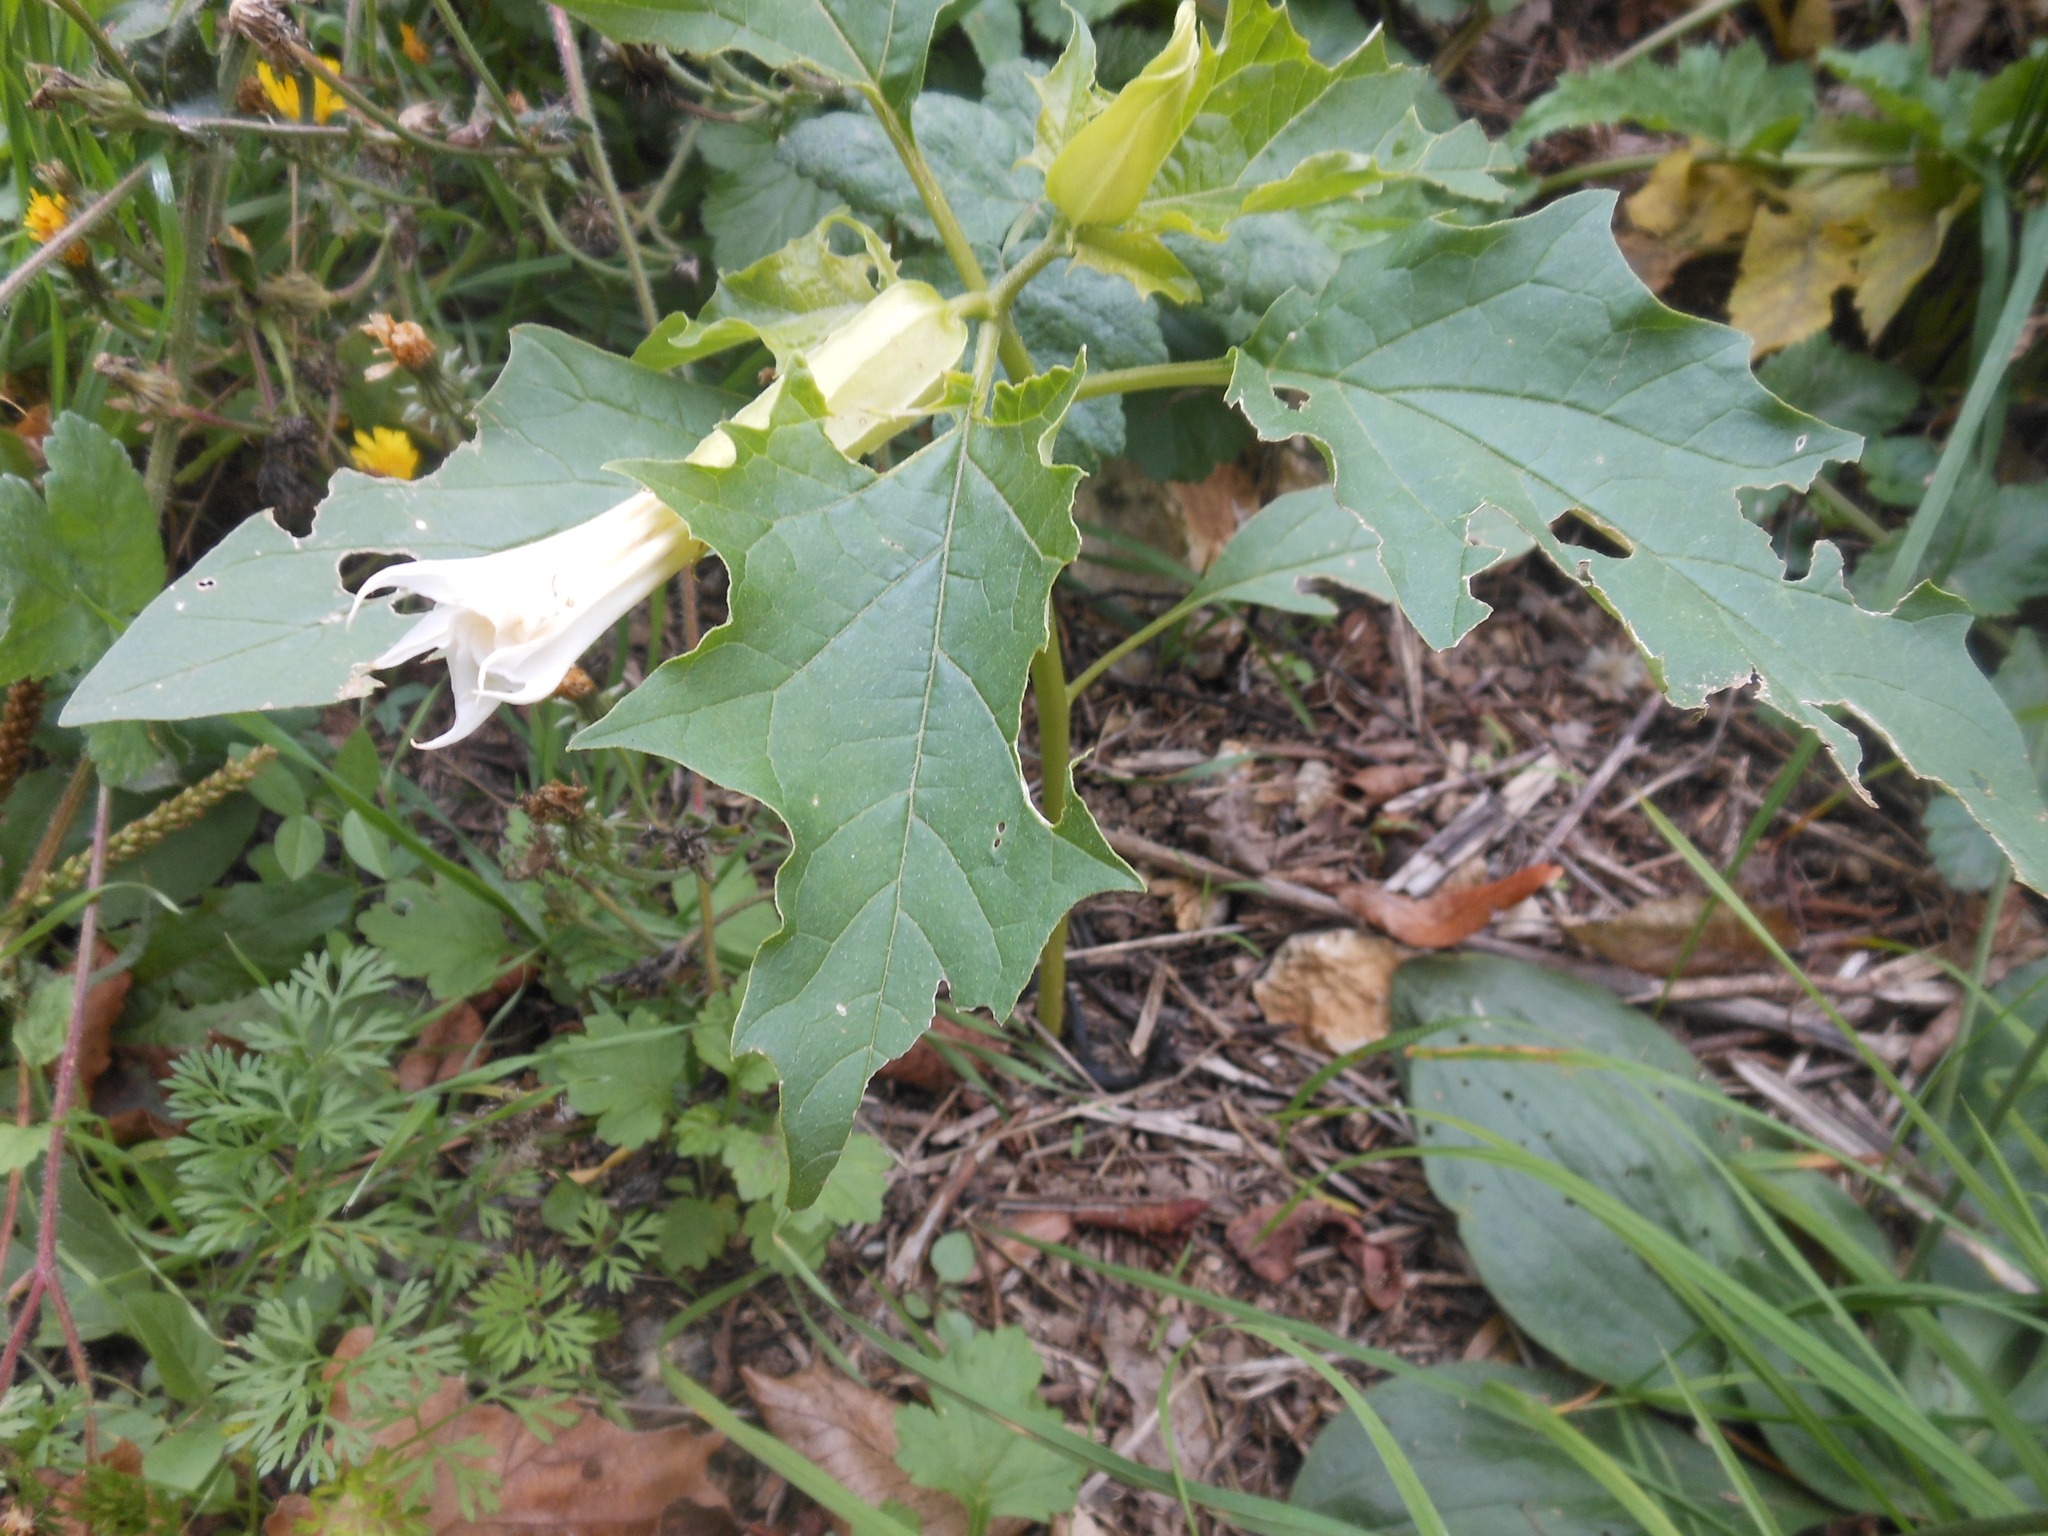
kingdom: Plantae
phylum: Tracheophyta
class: Magnoliopsida
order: Solanales
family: Solanaceae
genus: Datura
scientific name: Datura stramonium
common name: Thorn-apple
